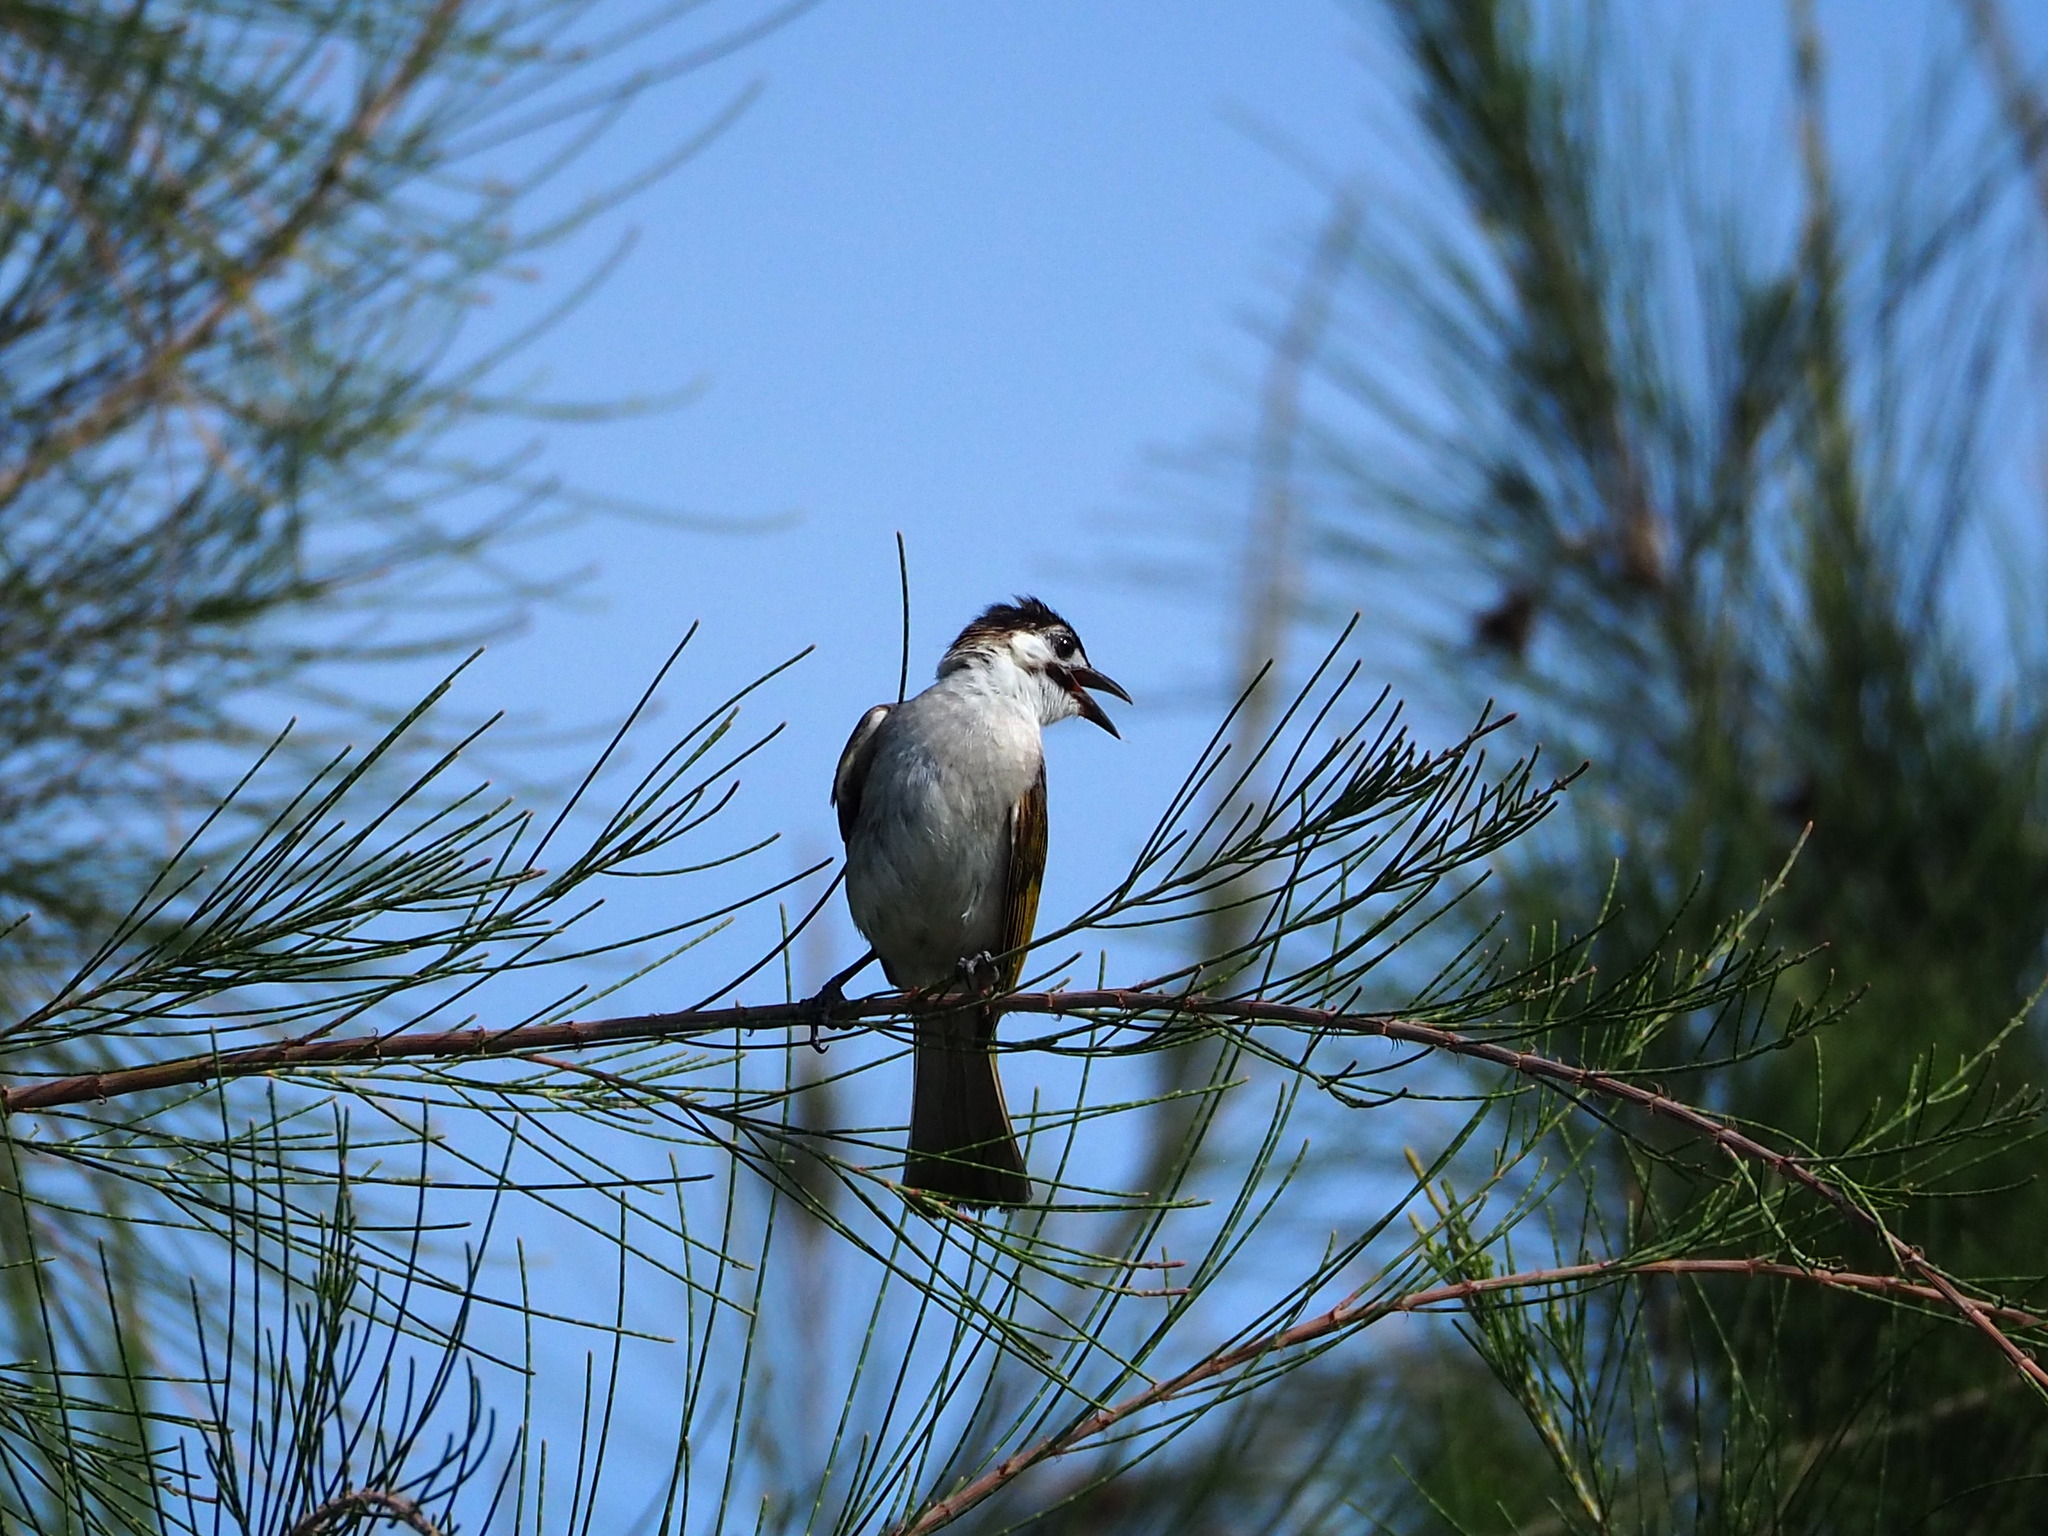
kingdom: Animalia
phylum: Chordata
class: Aves
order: Passeriformes
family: Pycnonotidae
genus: Pycnonotus
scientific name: Pycnonotus taivanus
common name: Styan's bulbul
